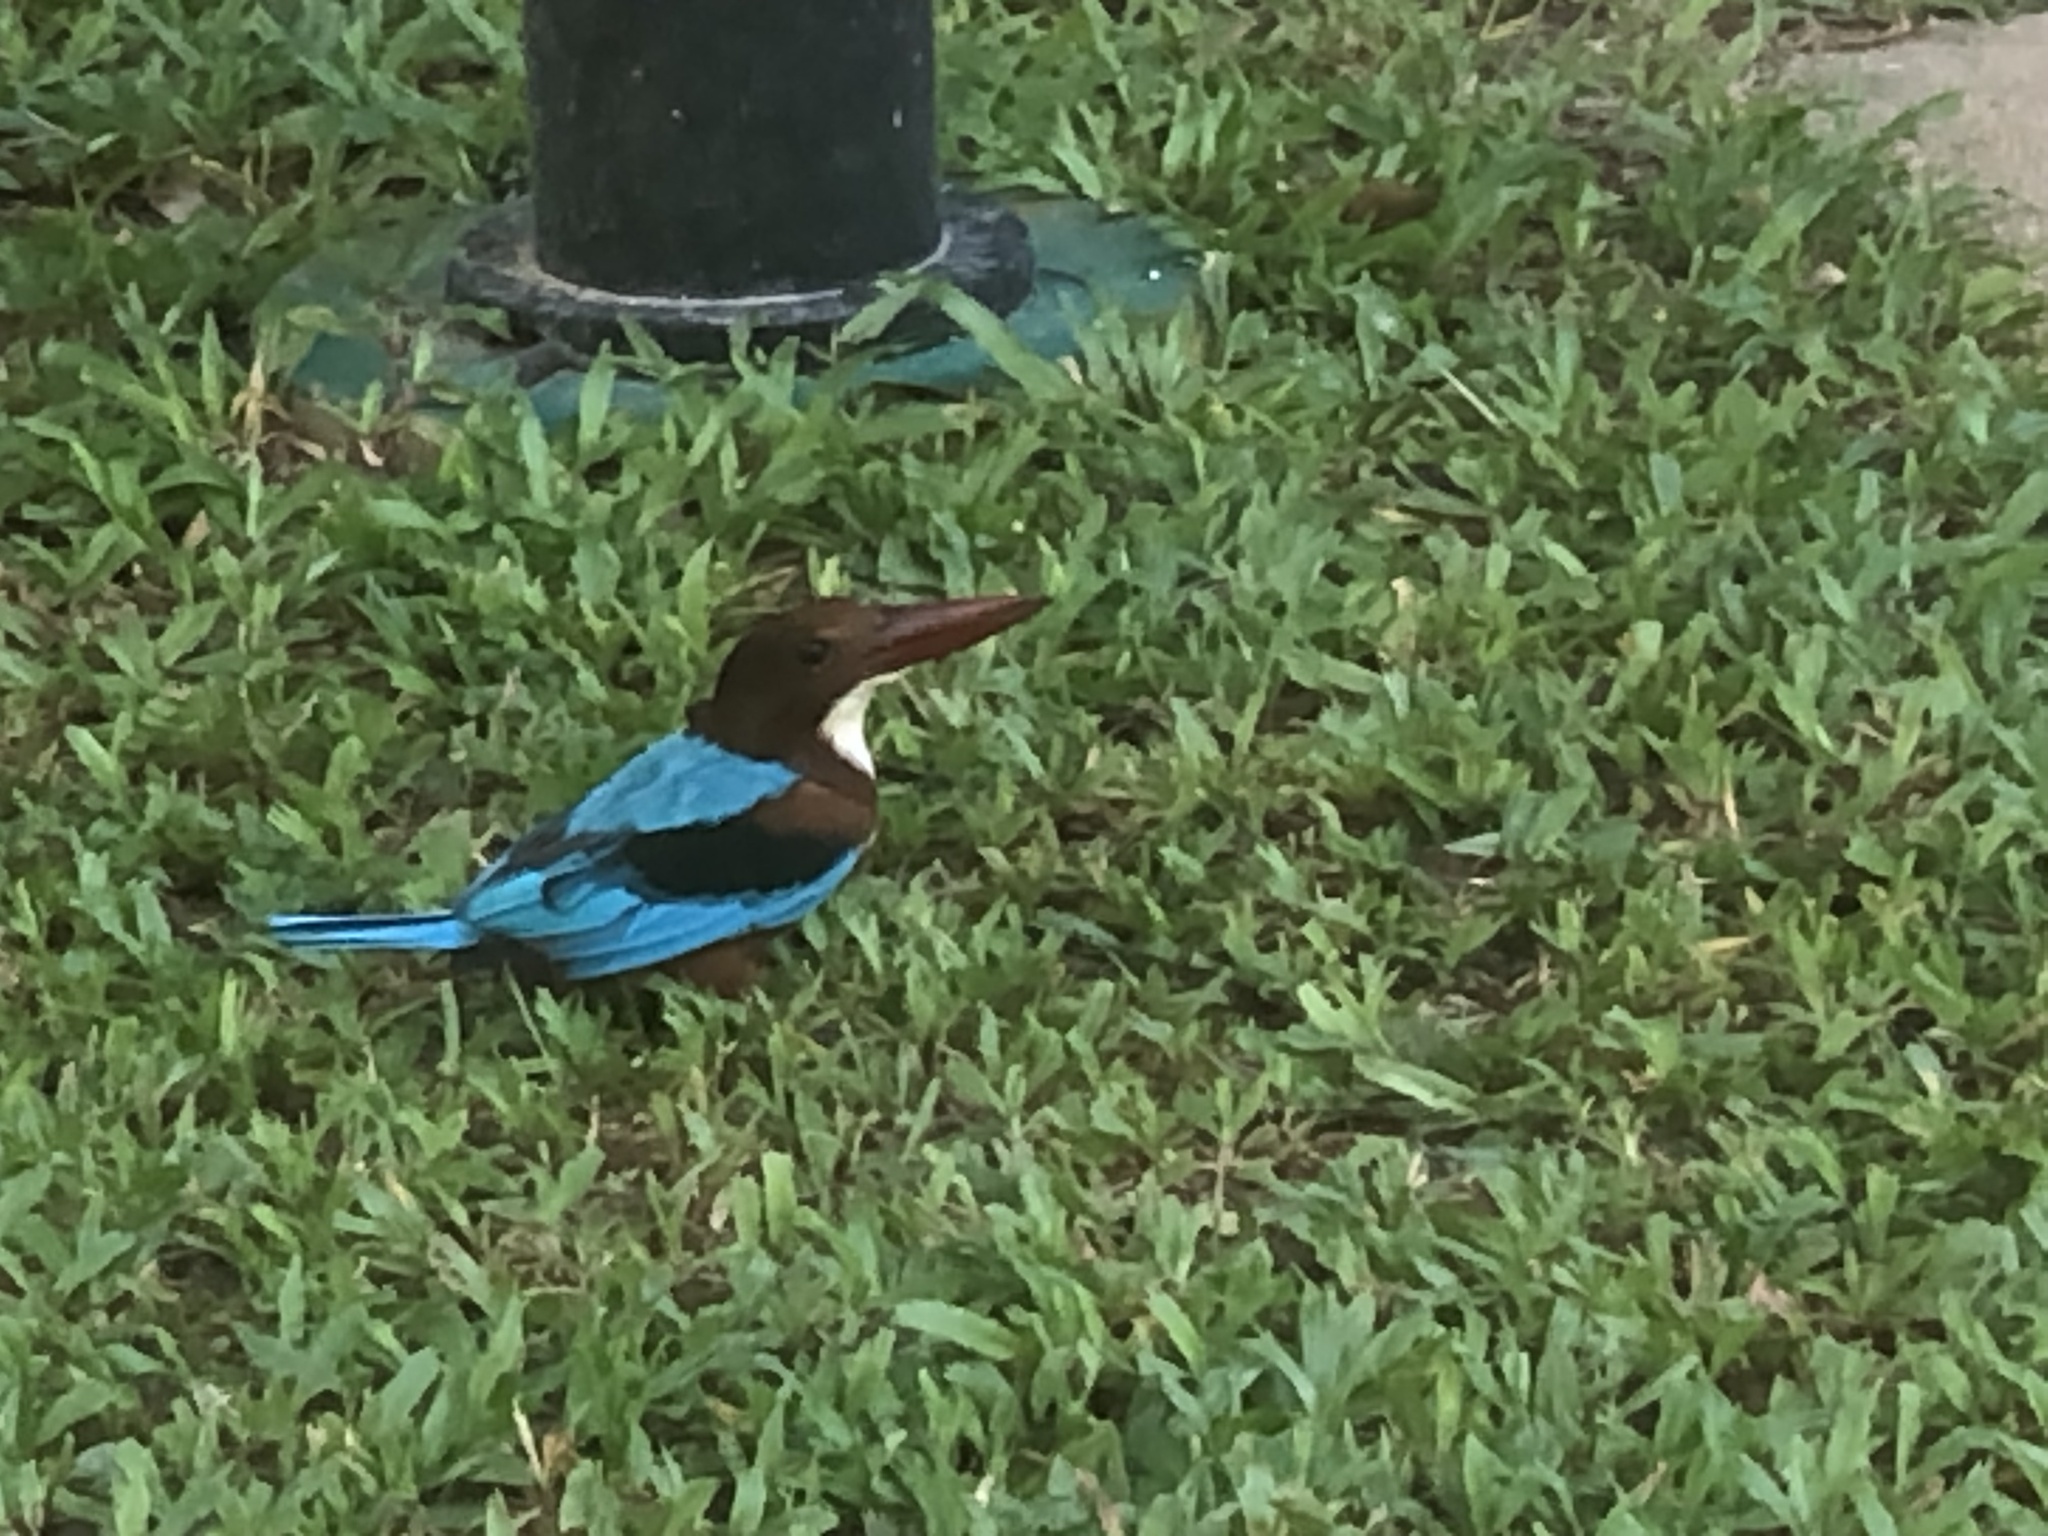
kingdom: Animalia
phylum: Chordata
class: Aves
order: Coraciiformes
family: Alcedinidae
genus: Halcyon
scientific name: Halcyon smyrnensis
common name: White-throated kingfisher
